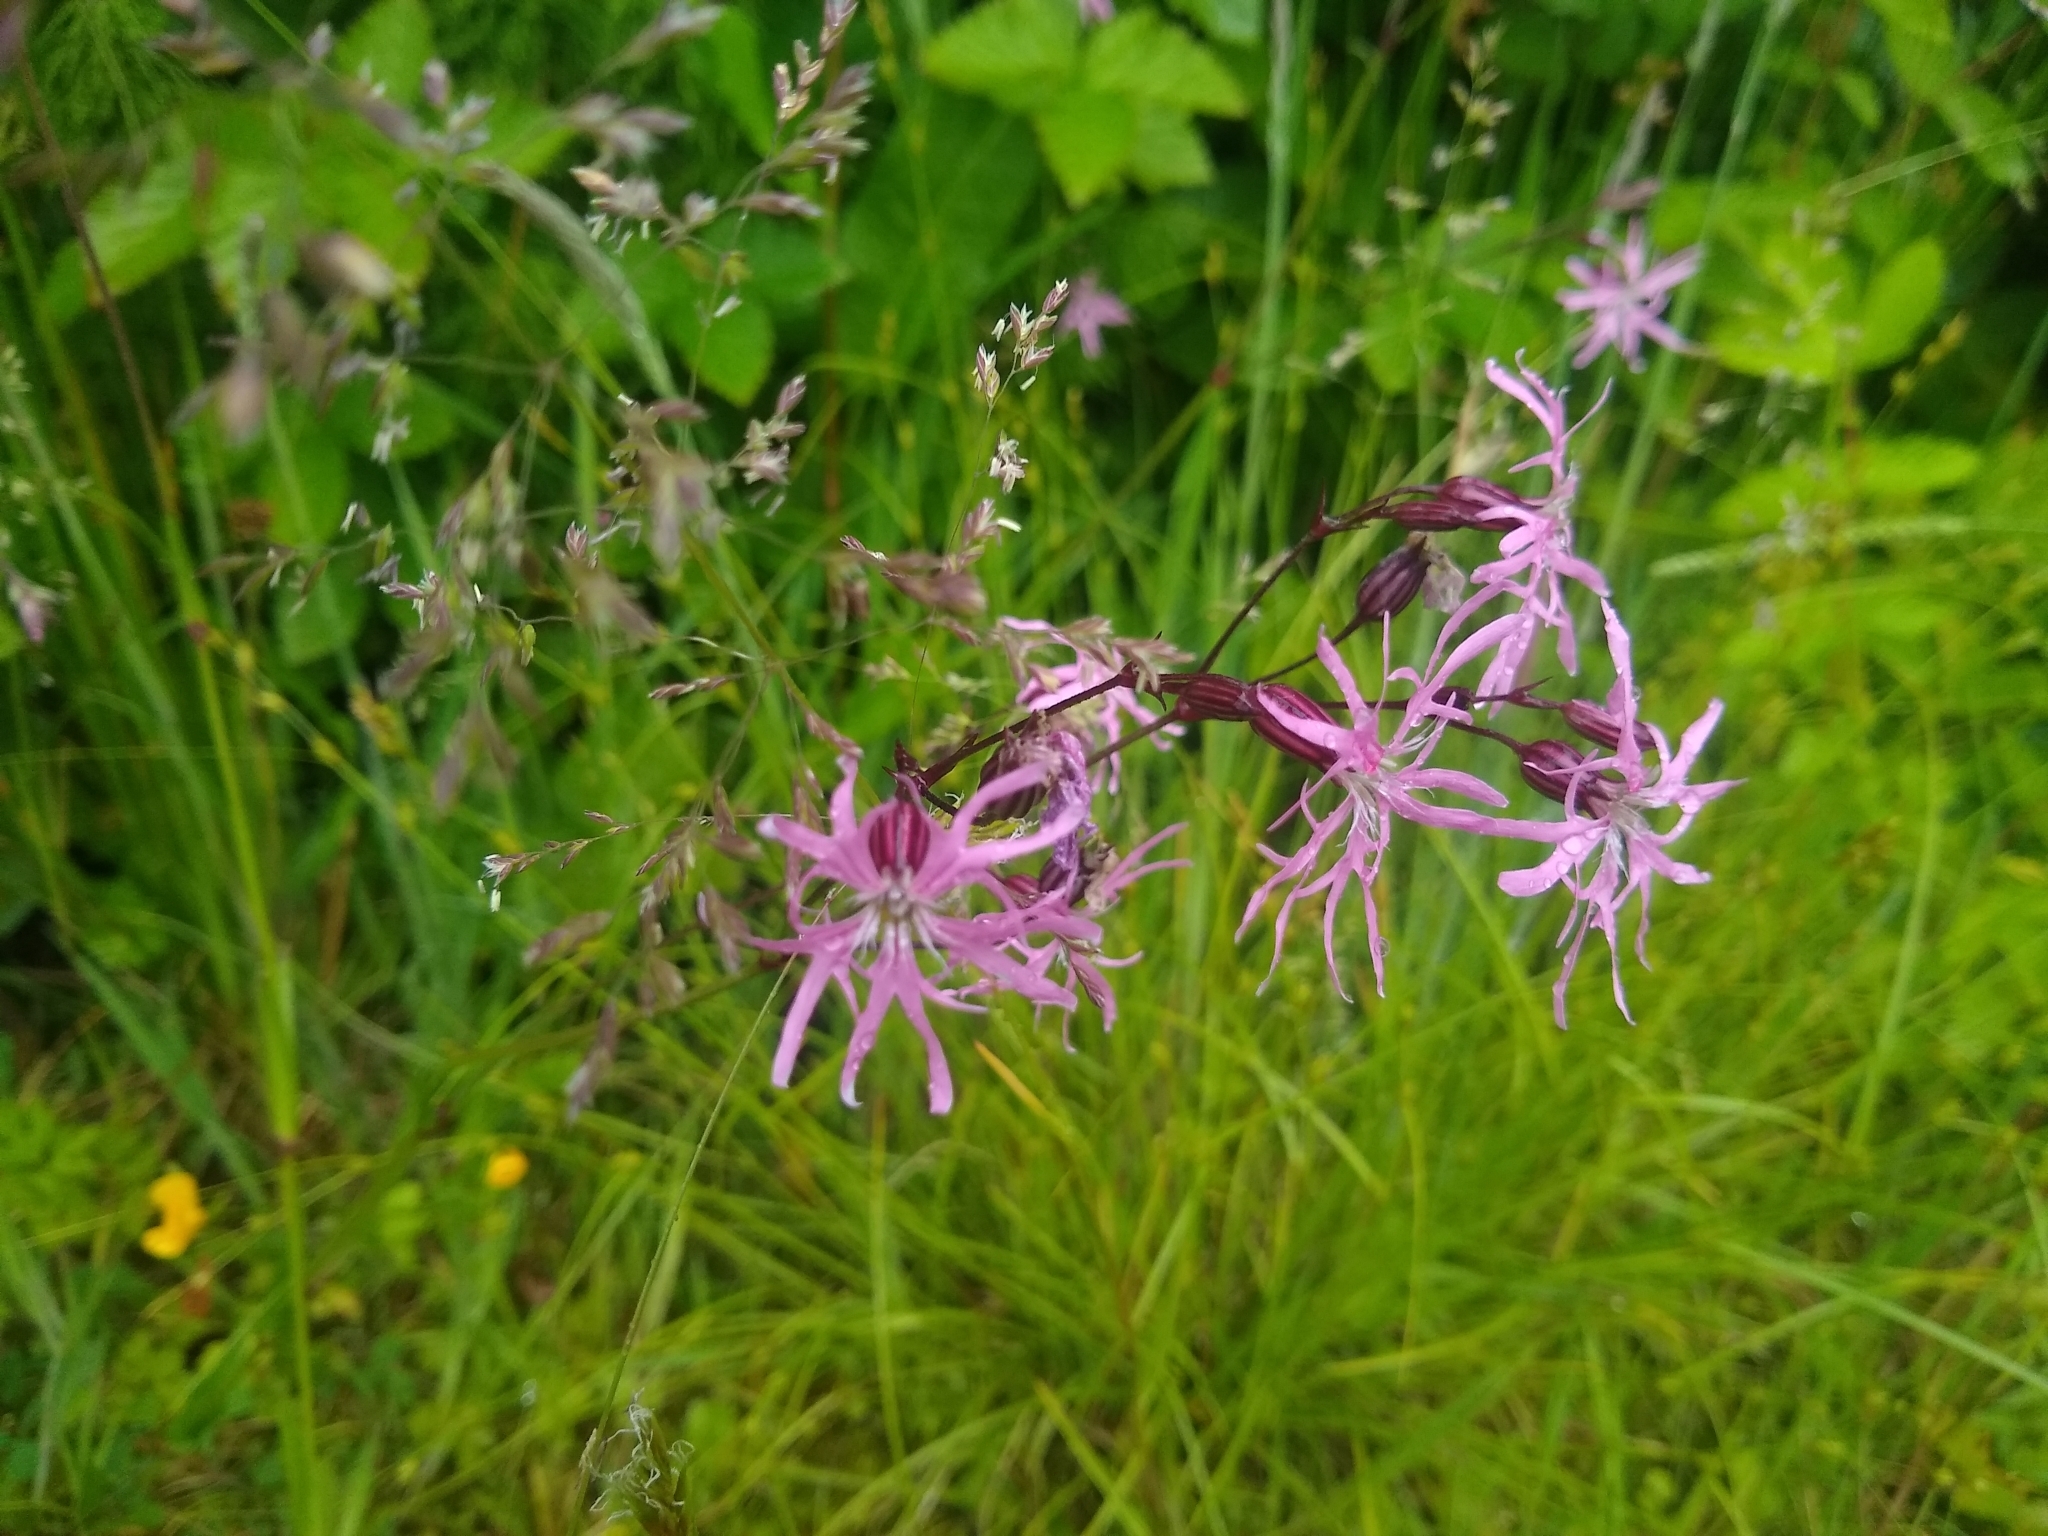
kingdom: Plantae
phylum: Tracheophyta
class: Magnoliopsida
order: Caryophyllales
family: Caryophyllaceae
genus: Silene
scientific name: Silene flos-cuculi
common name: Ragged-robin
